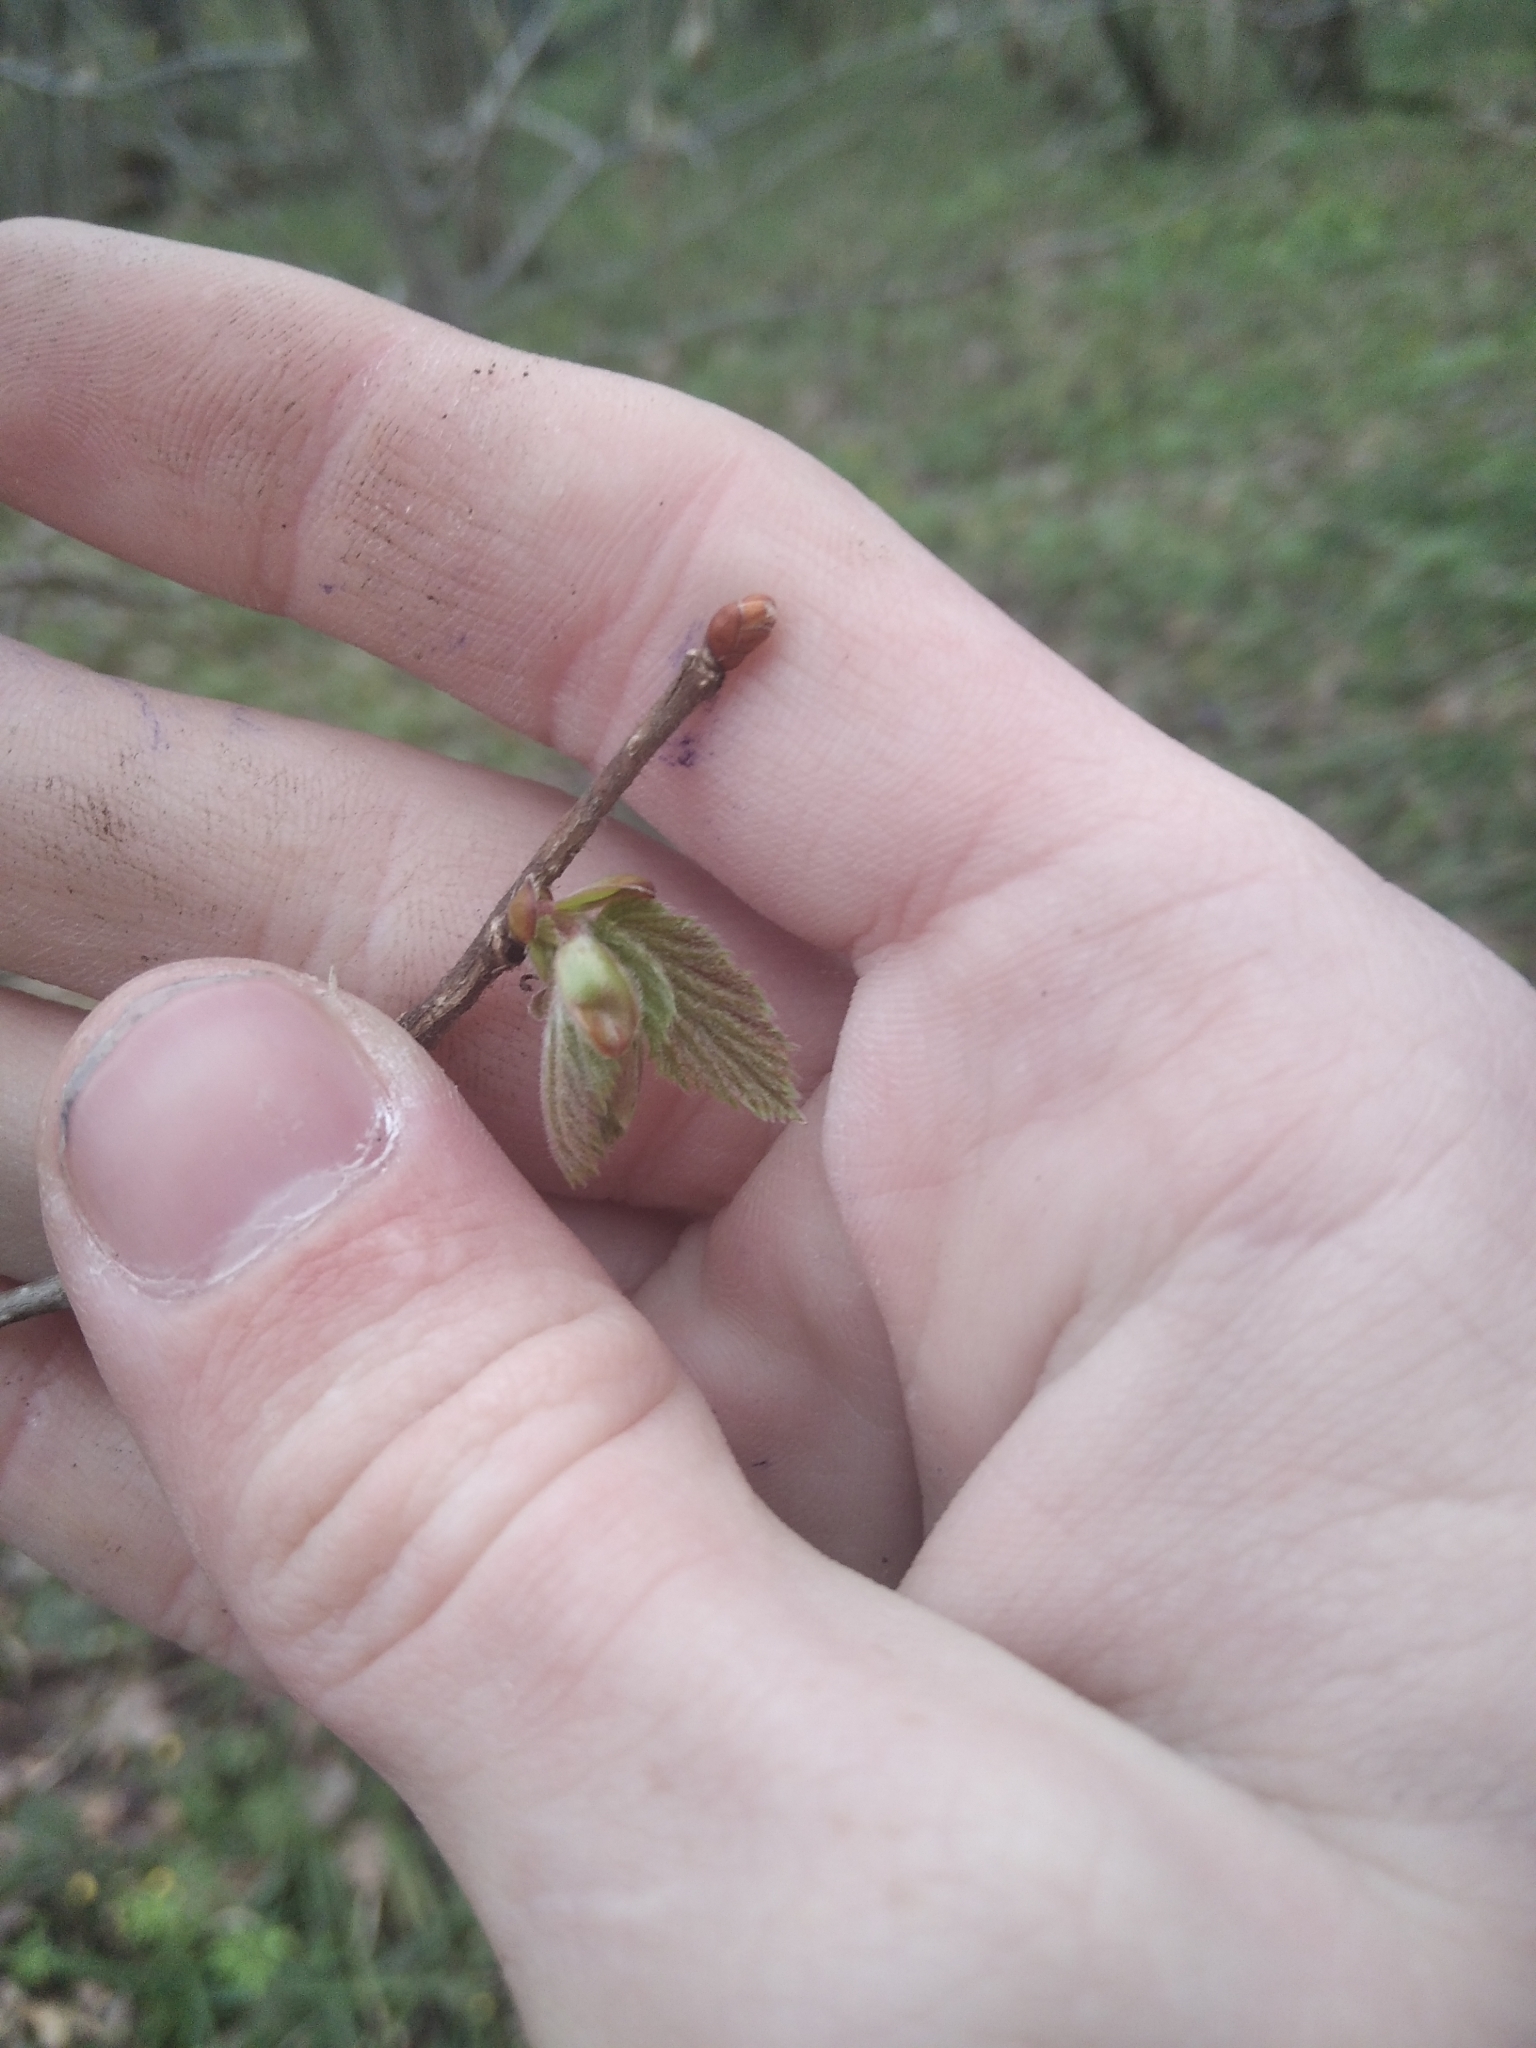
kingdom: Plantae
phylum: Tracheophyta
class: Magnoliopsida
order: Malvales
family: Malvaceae
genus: Tilia
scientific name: Tilia cordata
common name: Small-leaved lime
